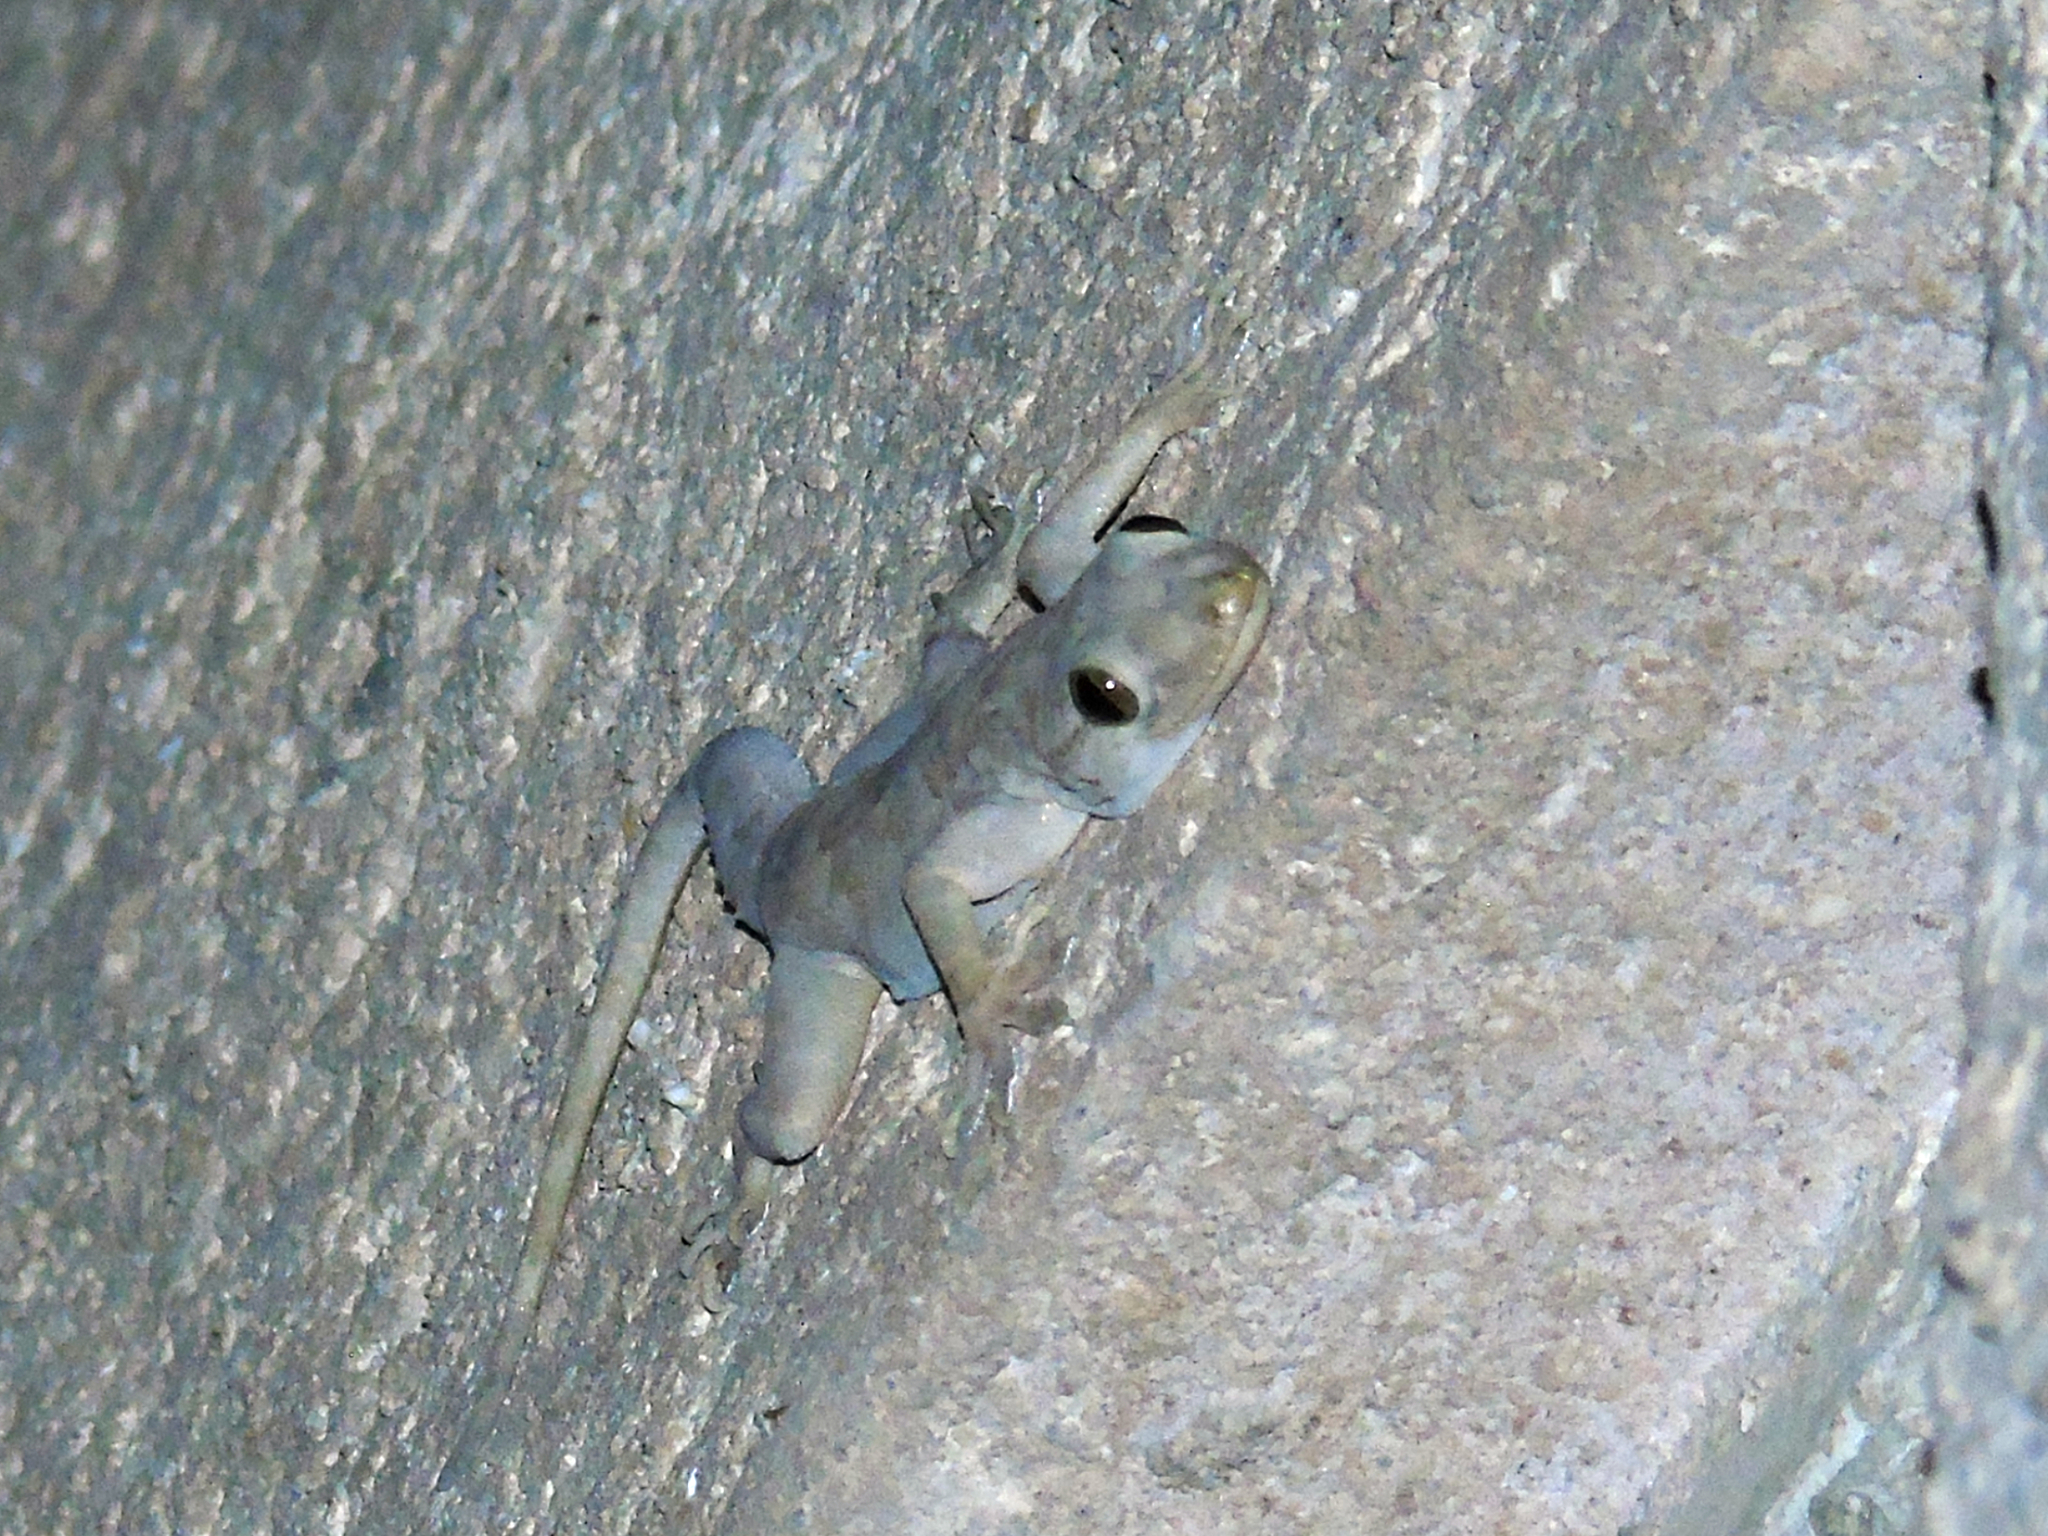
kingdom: Animalia
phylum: Chordata
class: Squamata
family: Gekkonidae
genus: Hemidactylus
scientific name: Hemidactylus flaviviridis
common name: Northern house gecko
